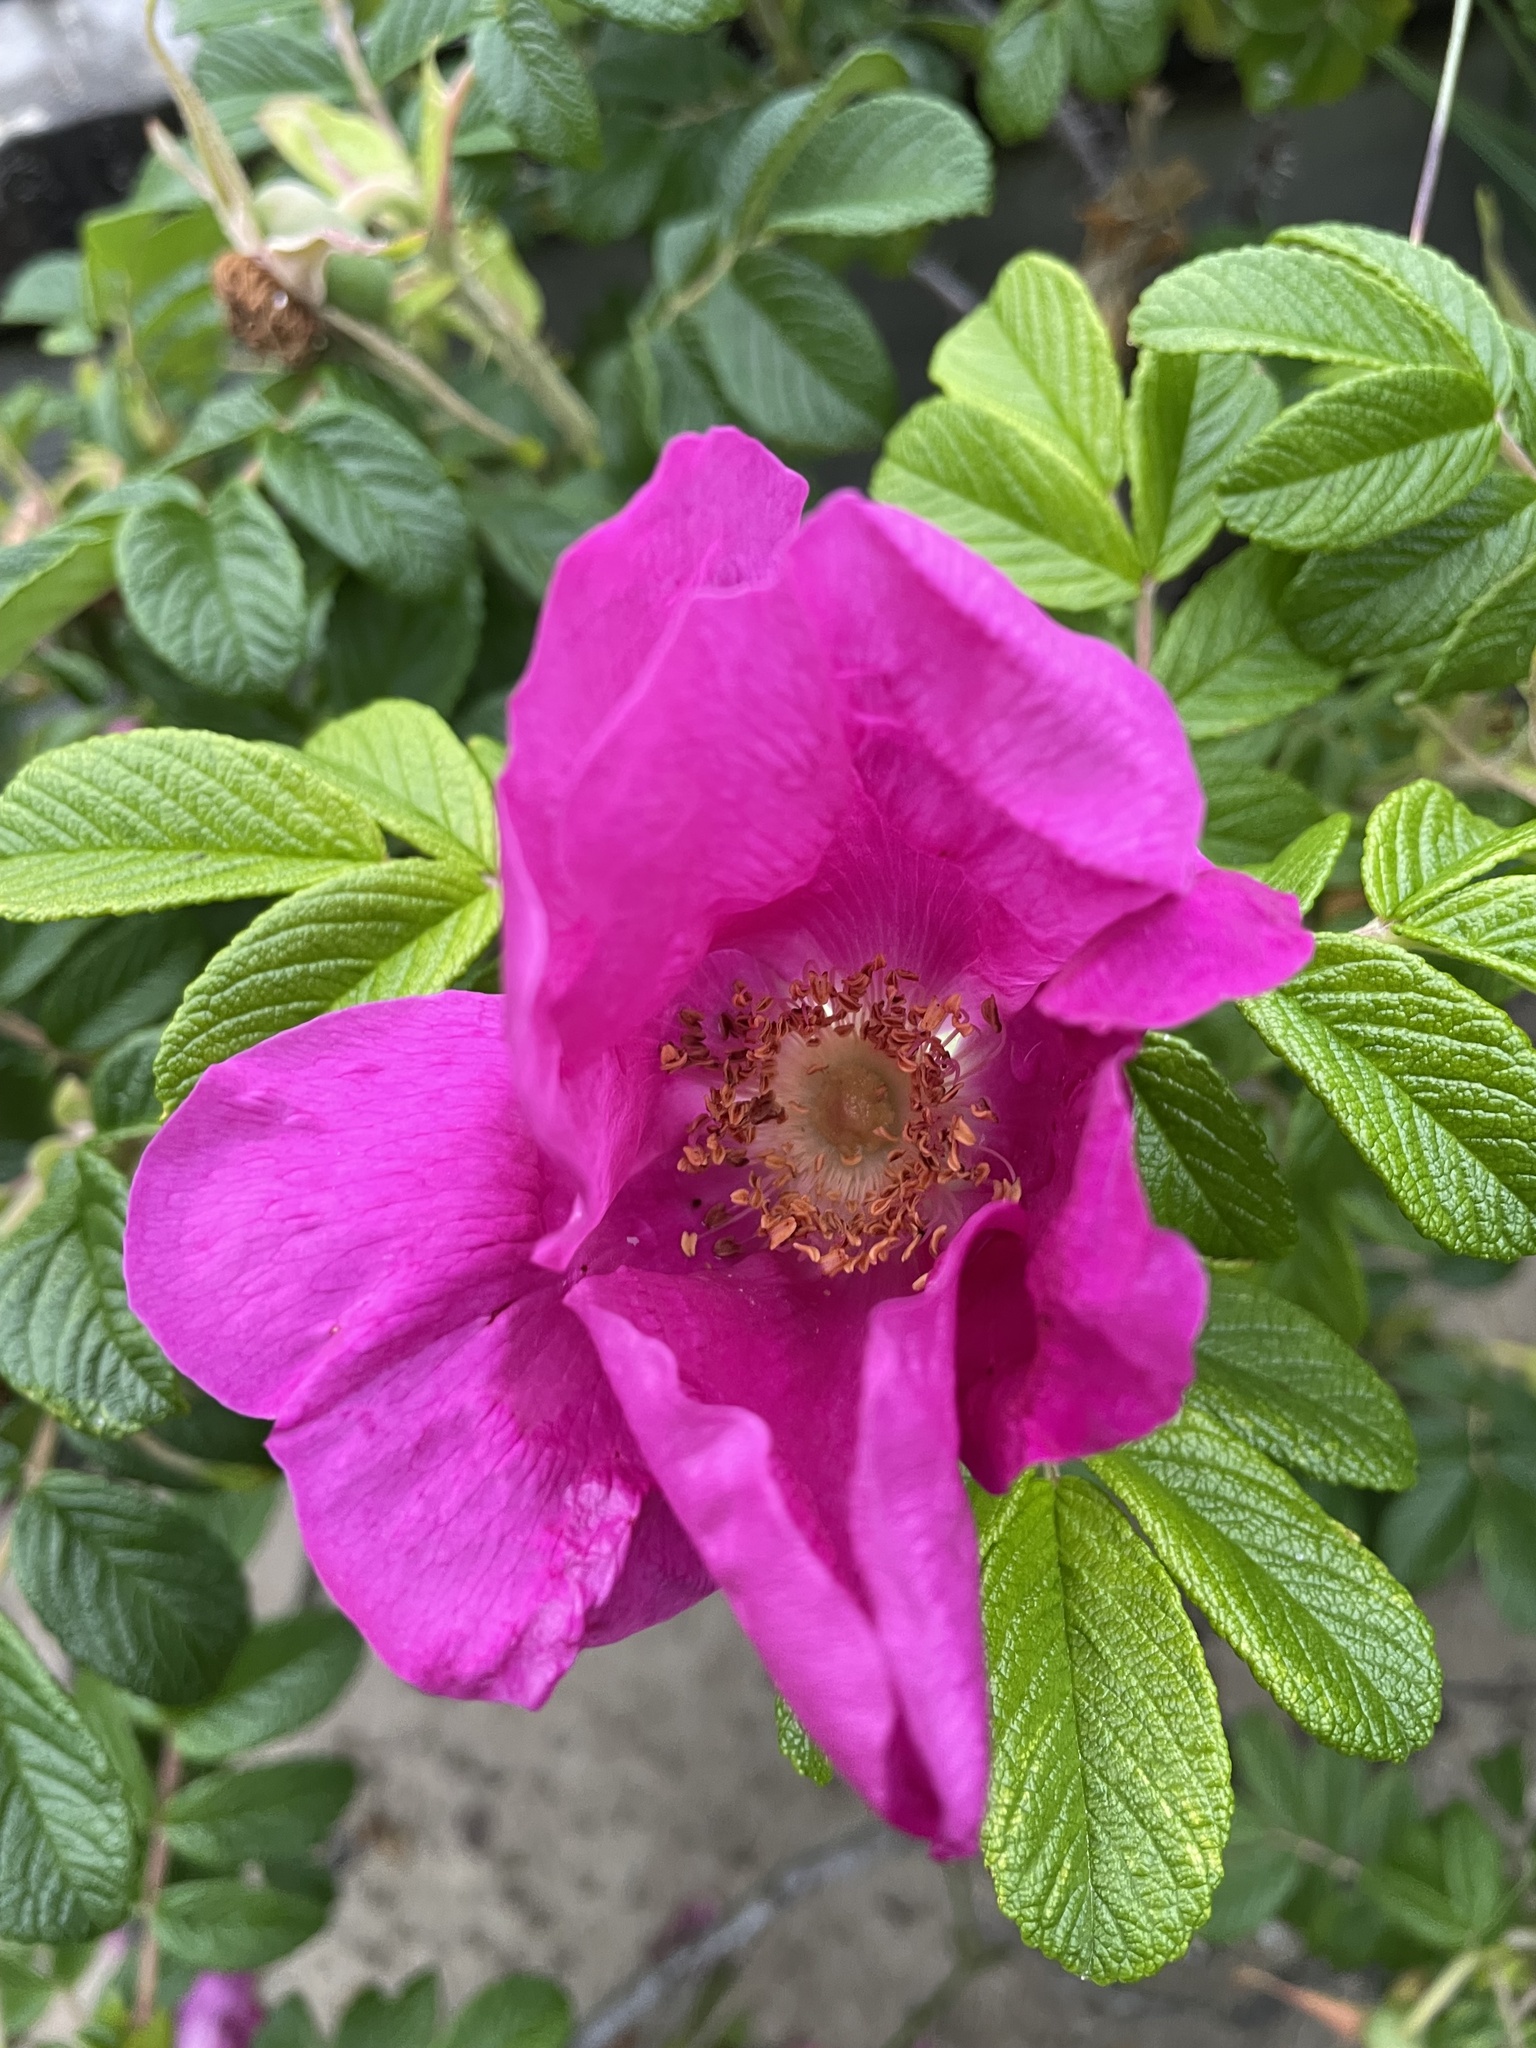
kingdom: Plantae
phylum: Tracheophyta
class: Magnoliopsida
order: Rosales
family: Rosaceae
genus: Rosa
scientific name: Rosa rugosa
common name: Japanese rose
